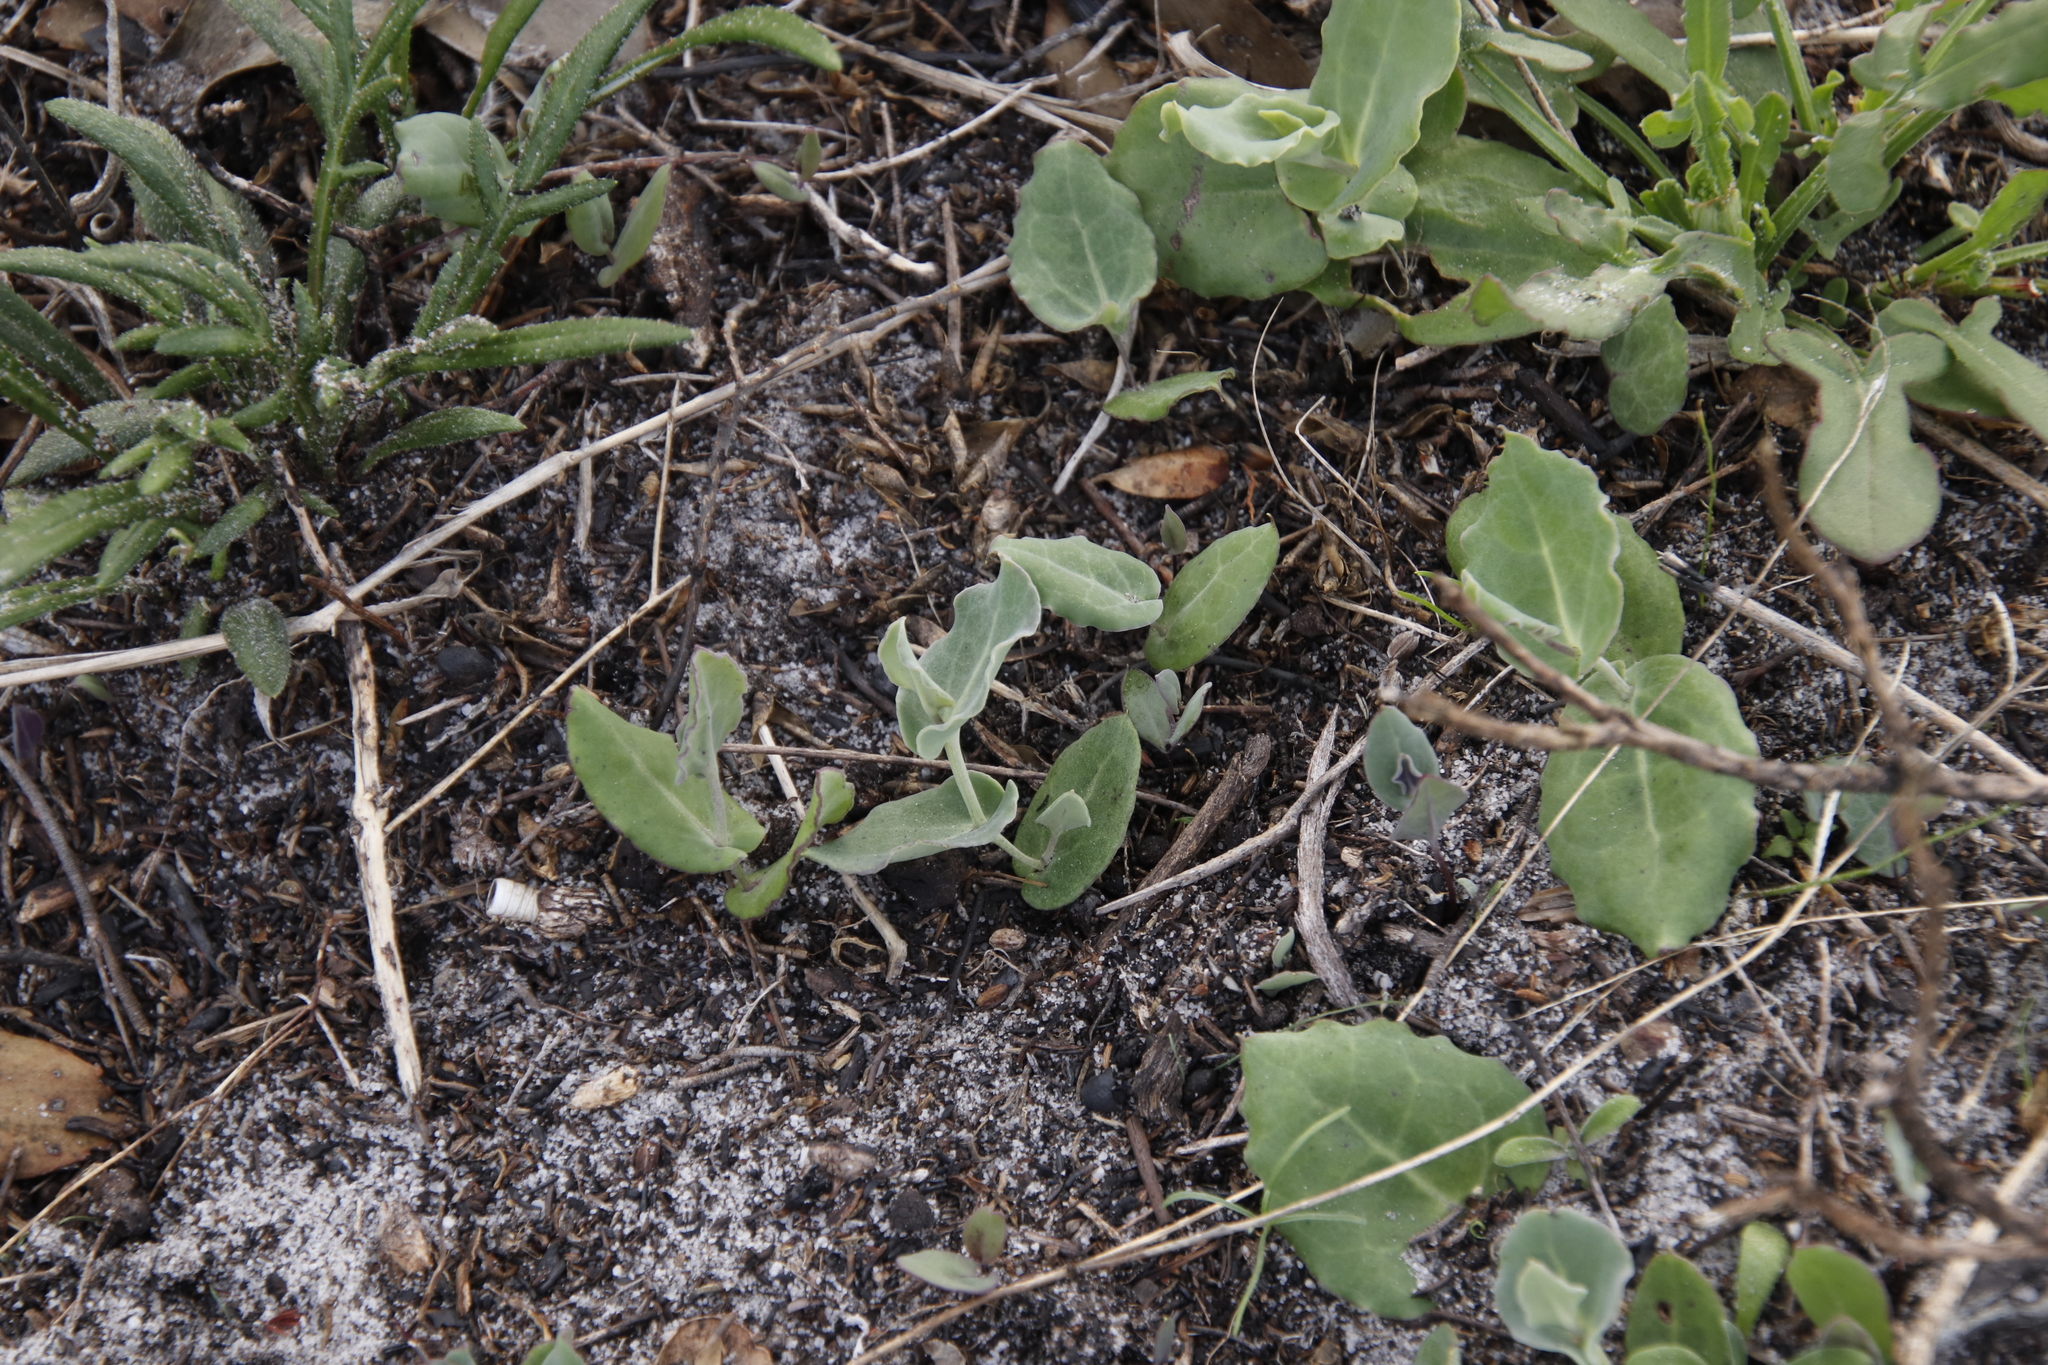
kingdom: Plantae
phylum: Tracheophyta
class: Magnoliopsida
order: Asterales
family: Asteraceae
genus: Othonna
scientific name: Othonna undulosa
